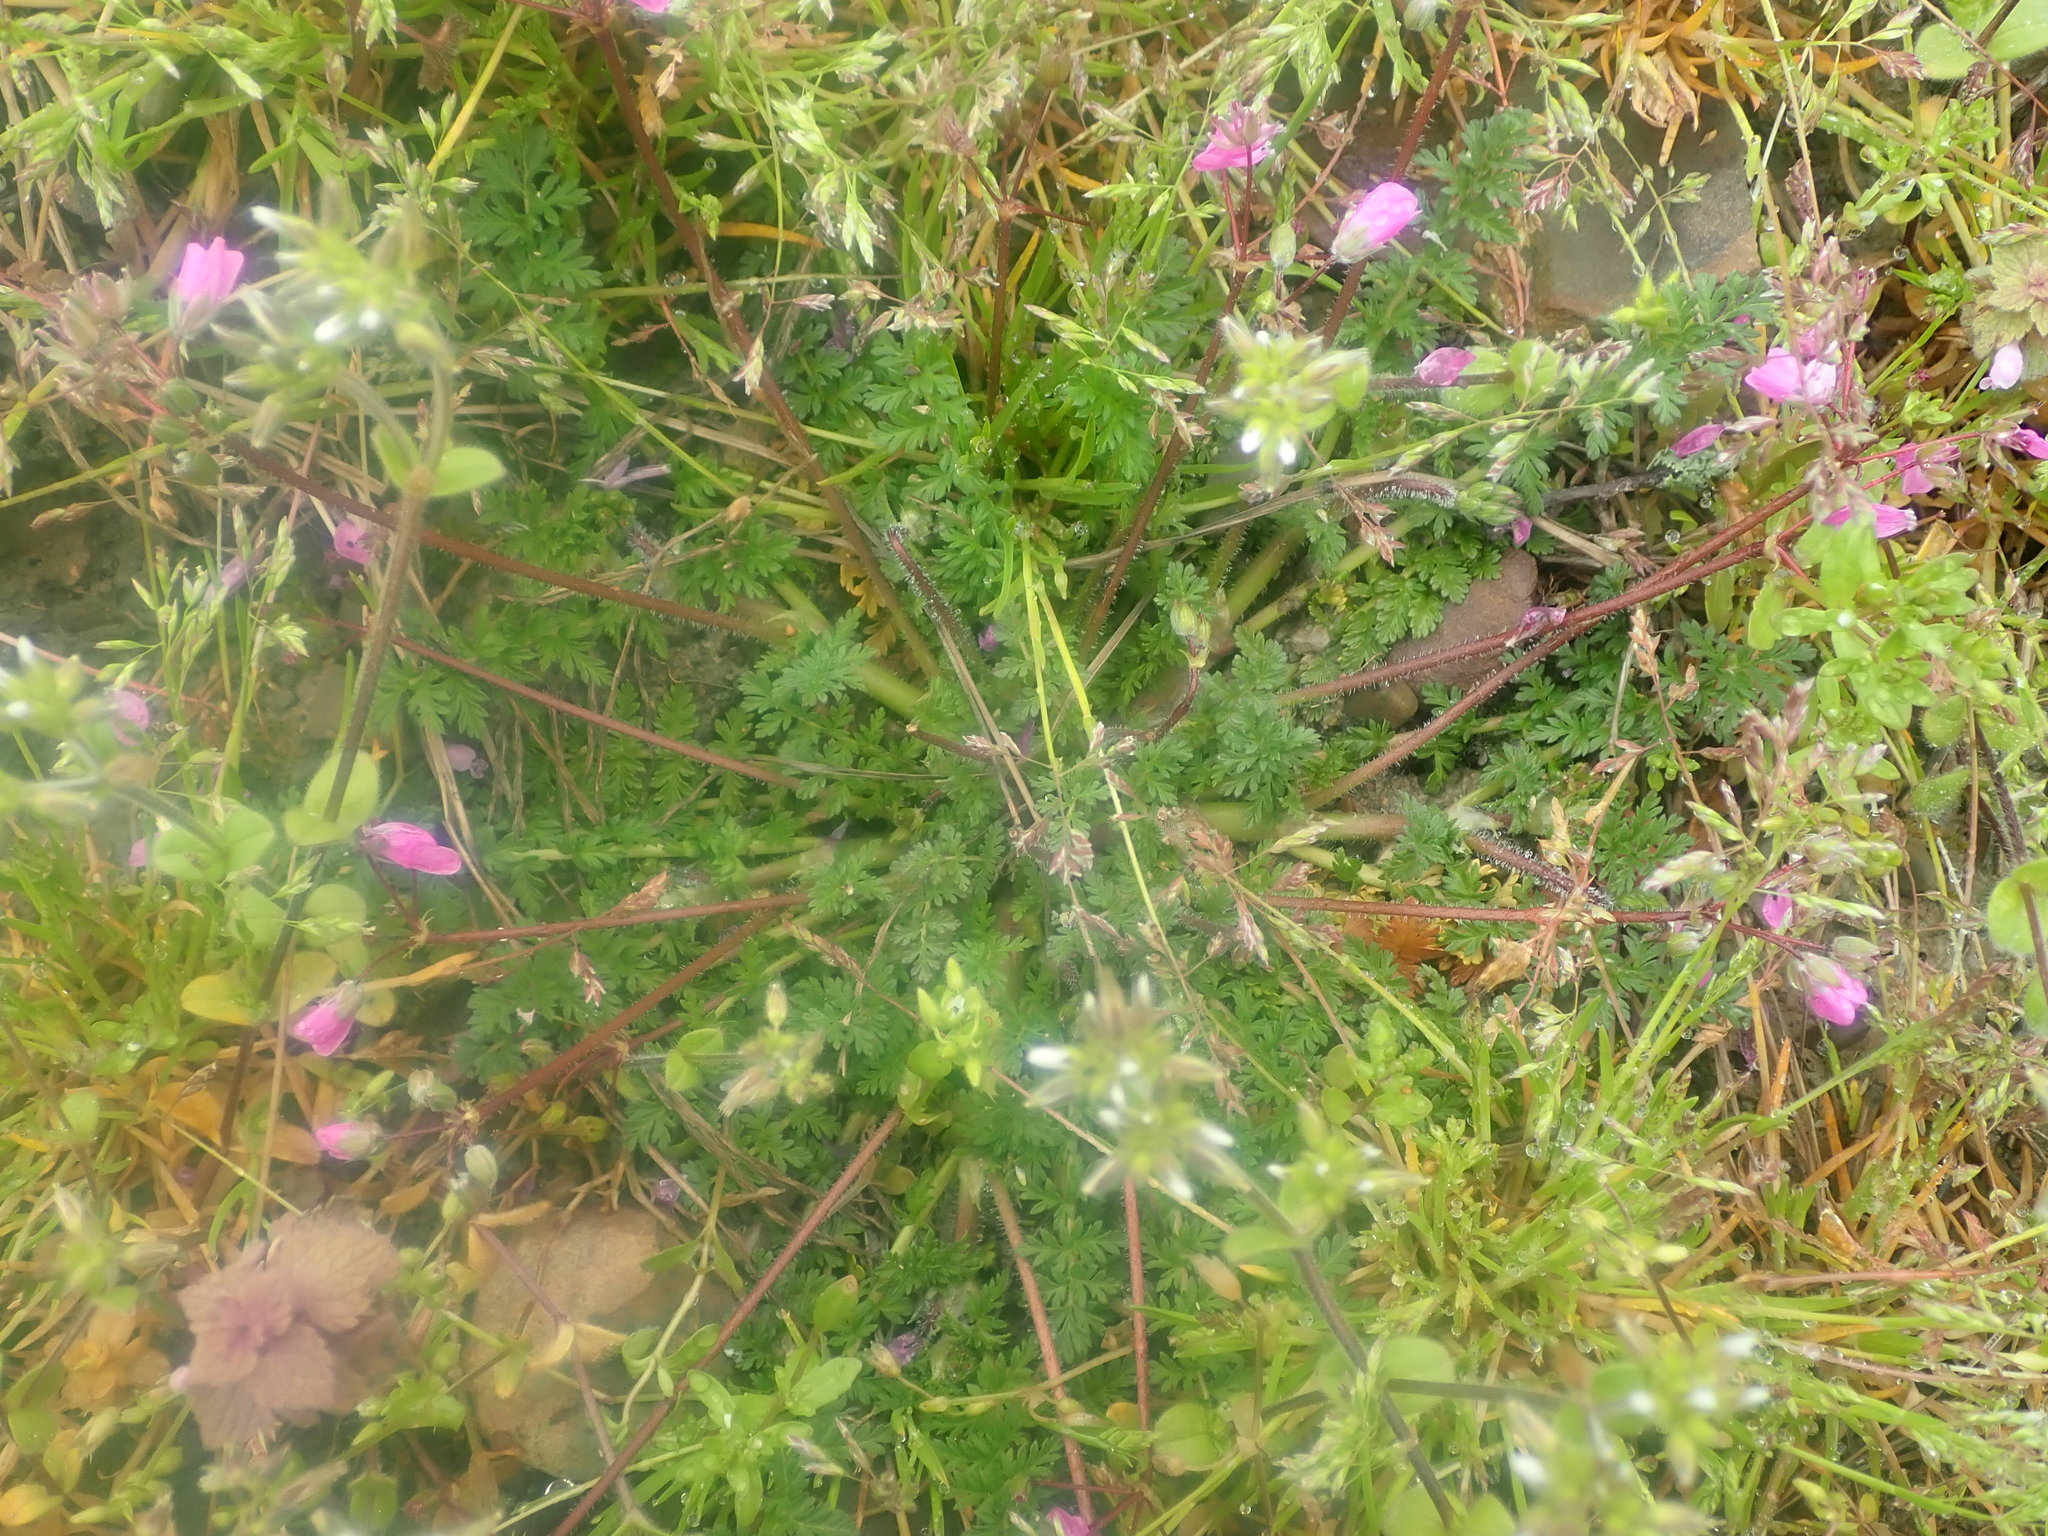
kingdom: Plantae
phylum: Tracheophyta
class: Magnoliopsida
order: Geraniales
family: Geraniaceae
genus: Erodium
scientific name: Erodium cicutarium
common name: Common stork's-bill
